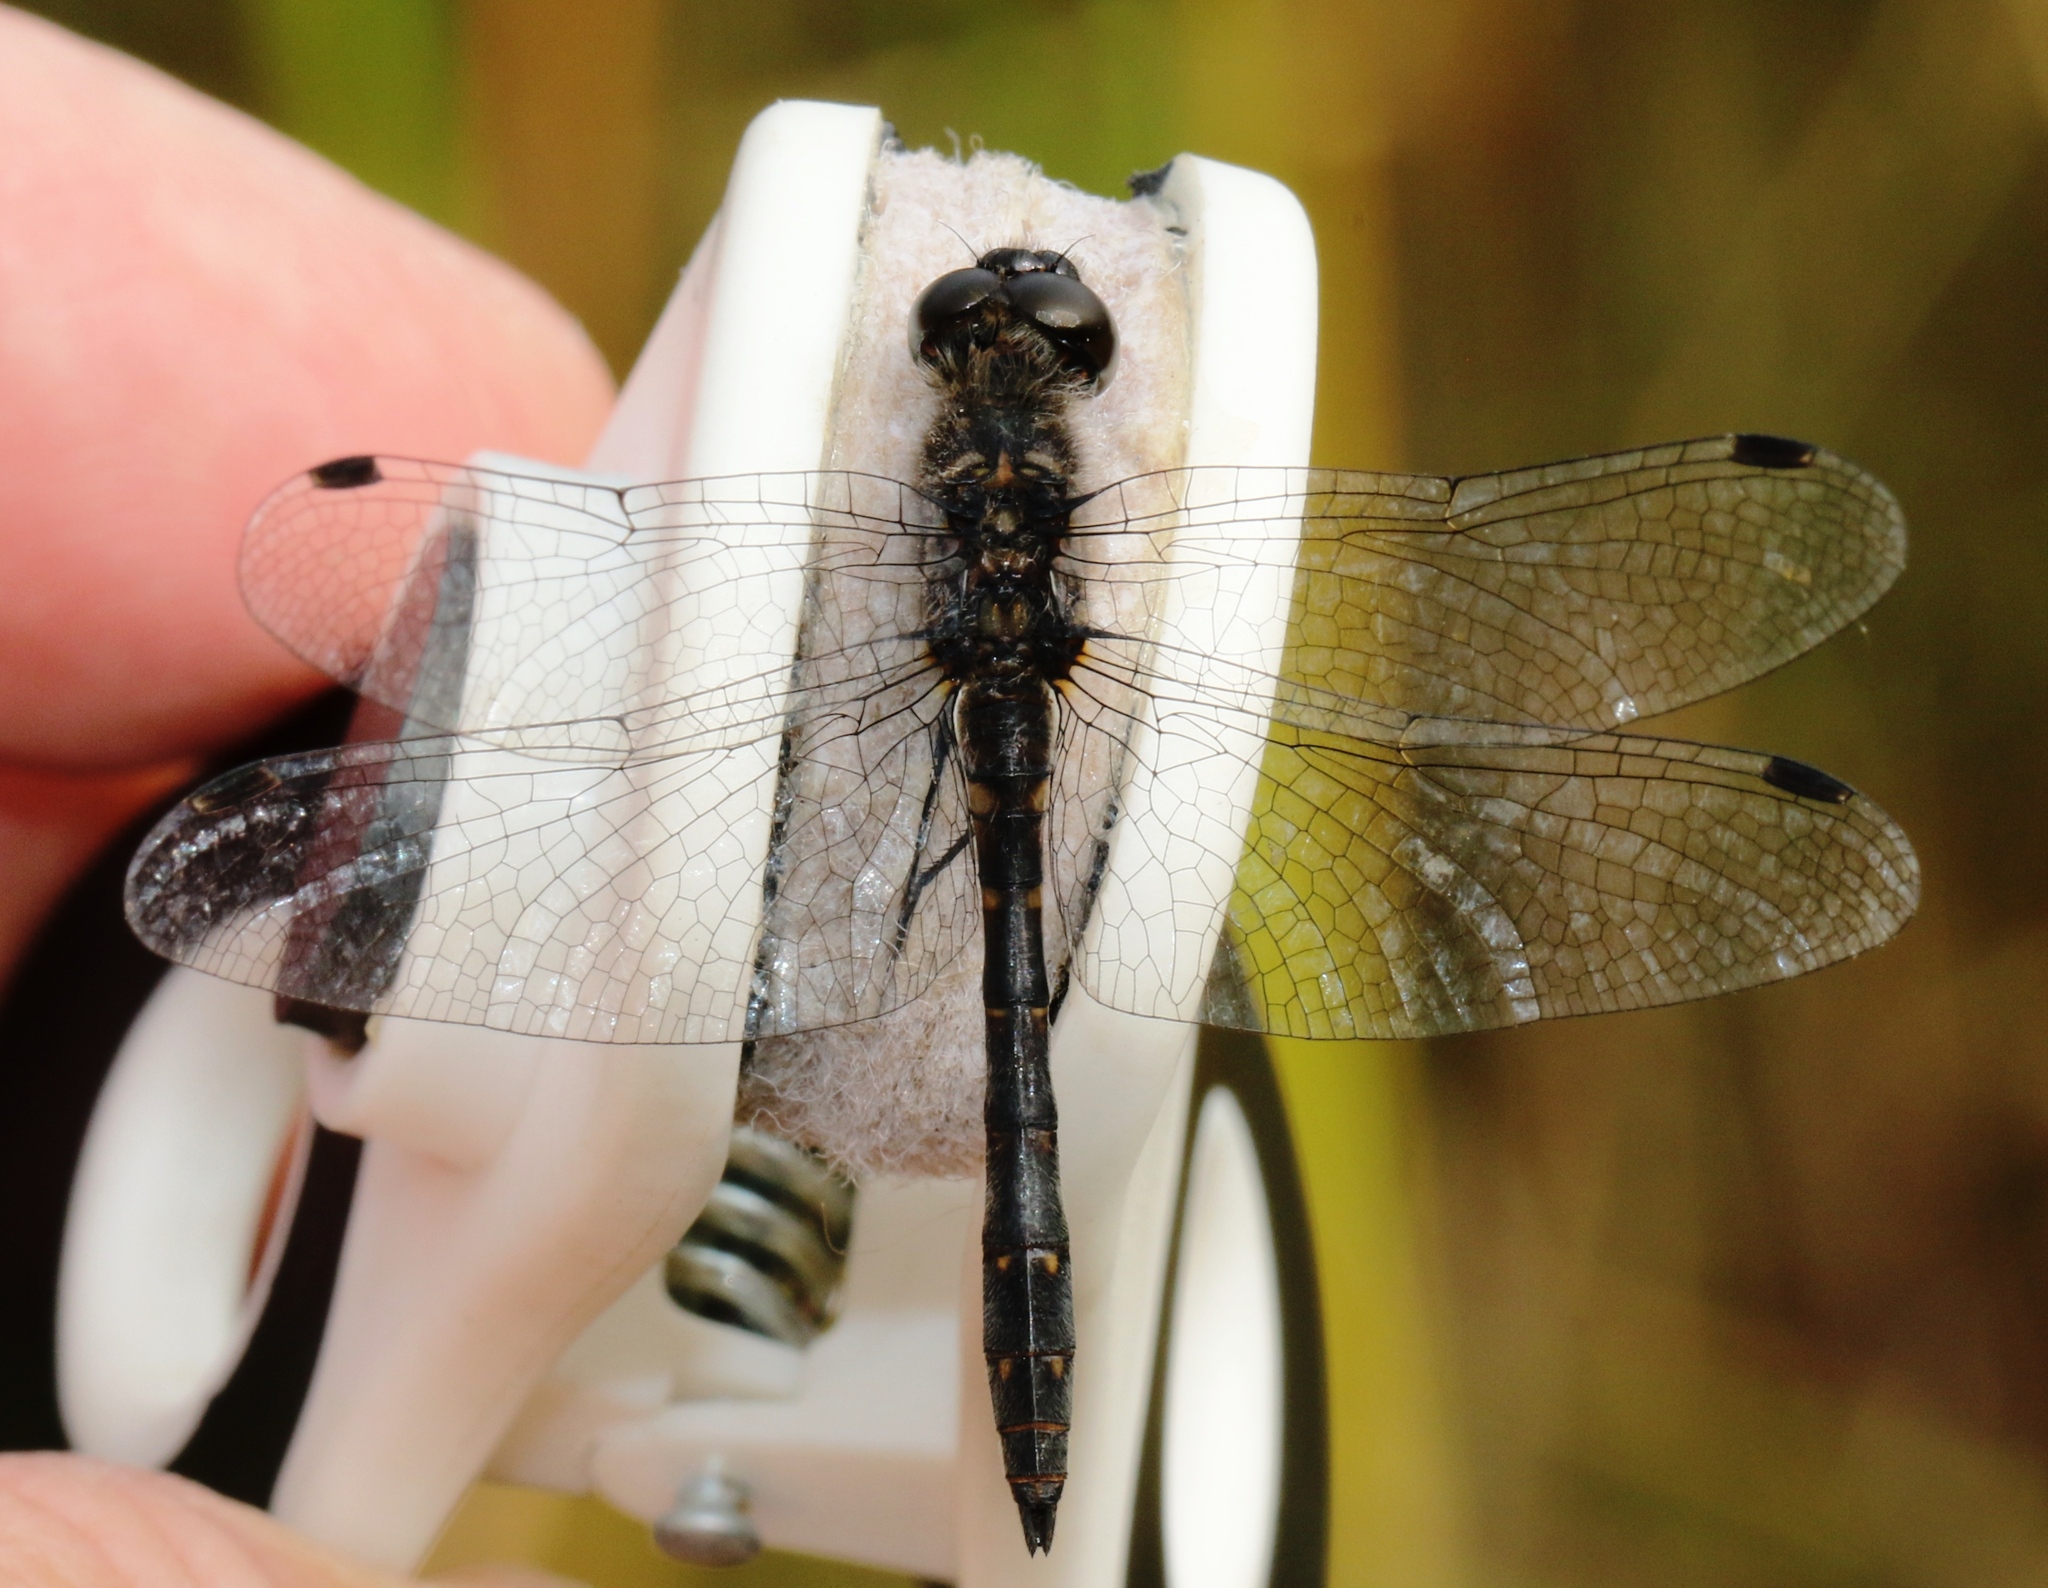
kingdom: Animalia
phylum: Arthropoda
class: Insecta
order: Odonata
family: Libellulidae
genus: Sympetrum
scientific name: Sympetrum danae
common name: Black darter
